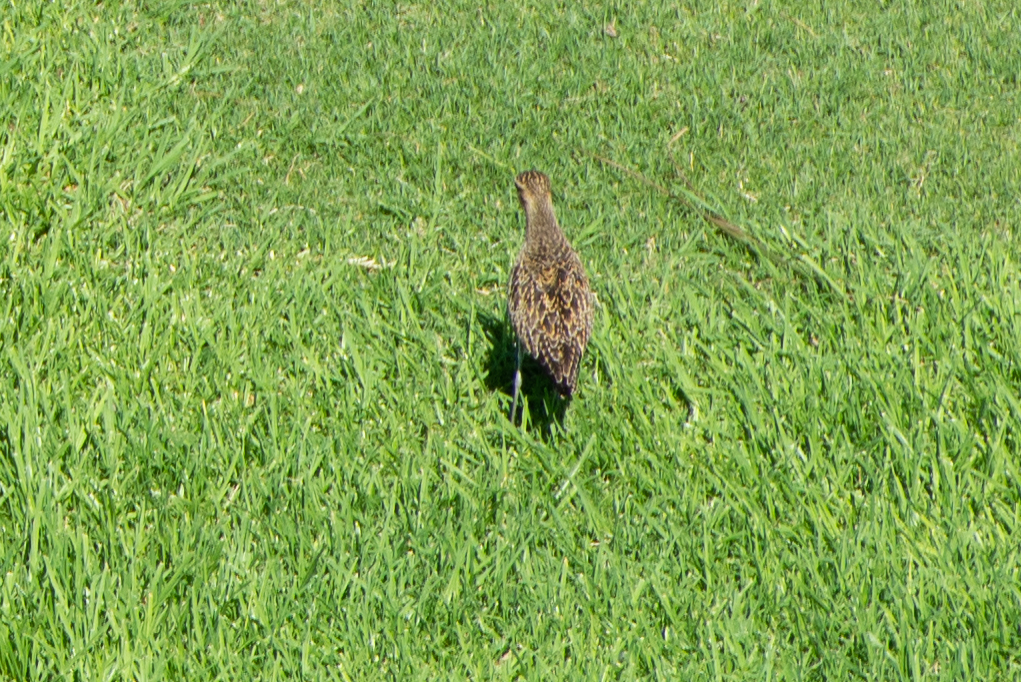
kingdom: Animalia
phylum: Chordata
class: Aves
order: Charadriiformes
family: Charadriidae
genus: Pluvialis
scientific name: Pluvialis fulva
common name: Pacific golden plover
